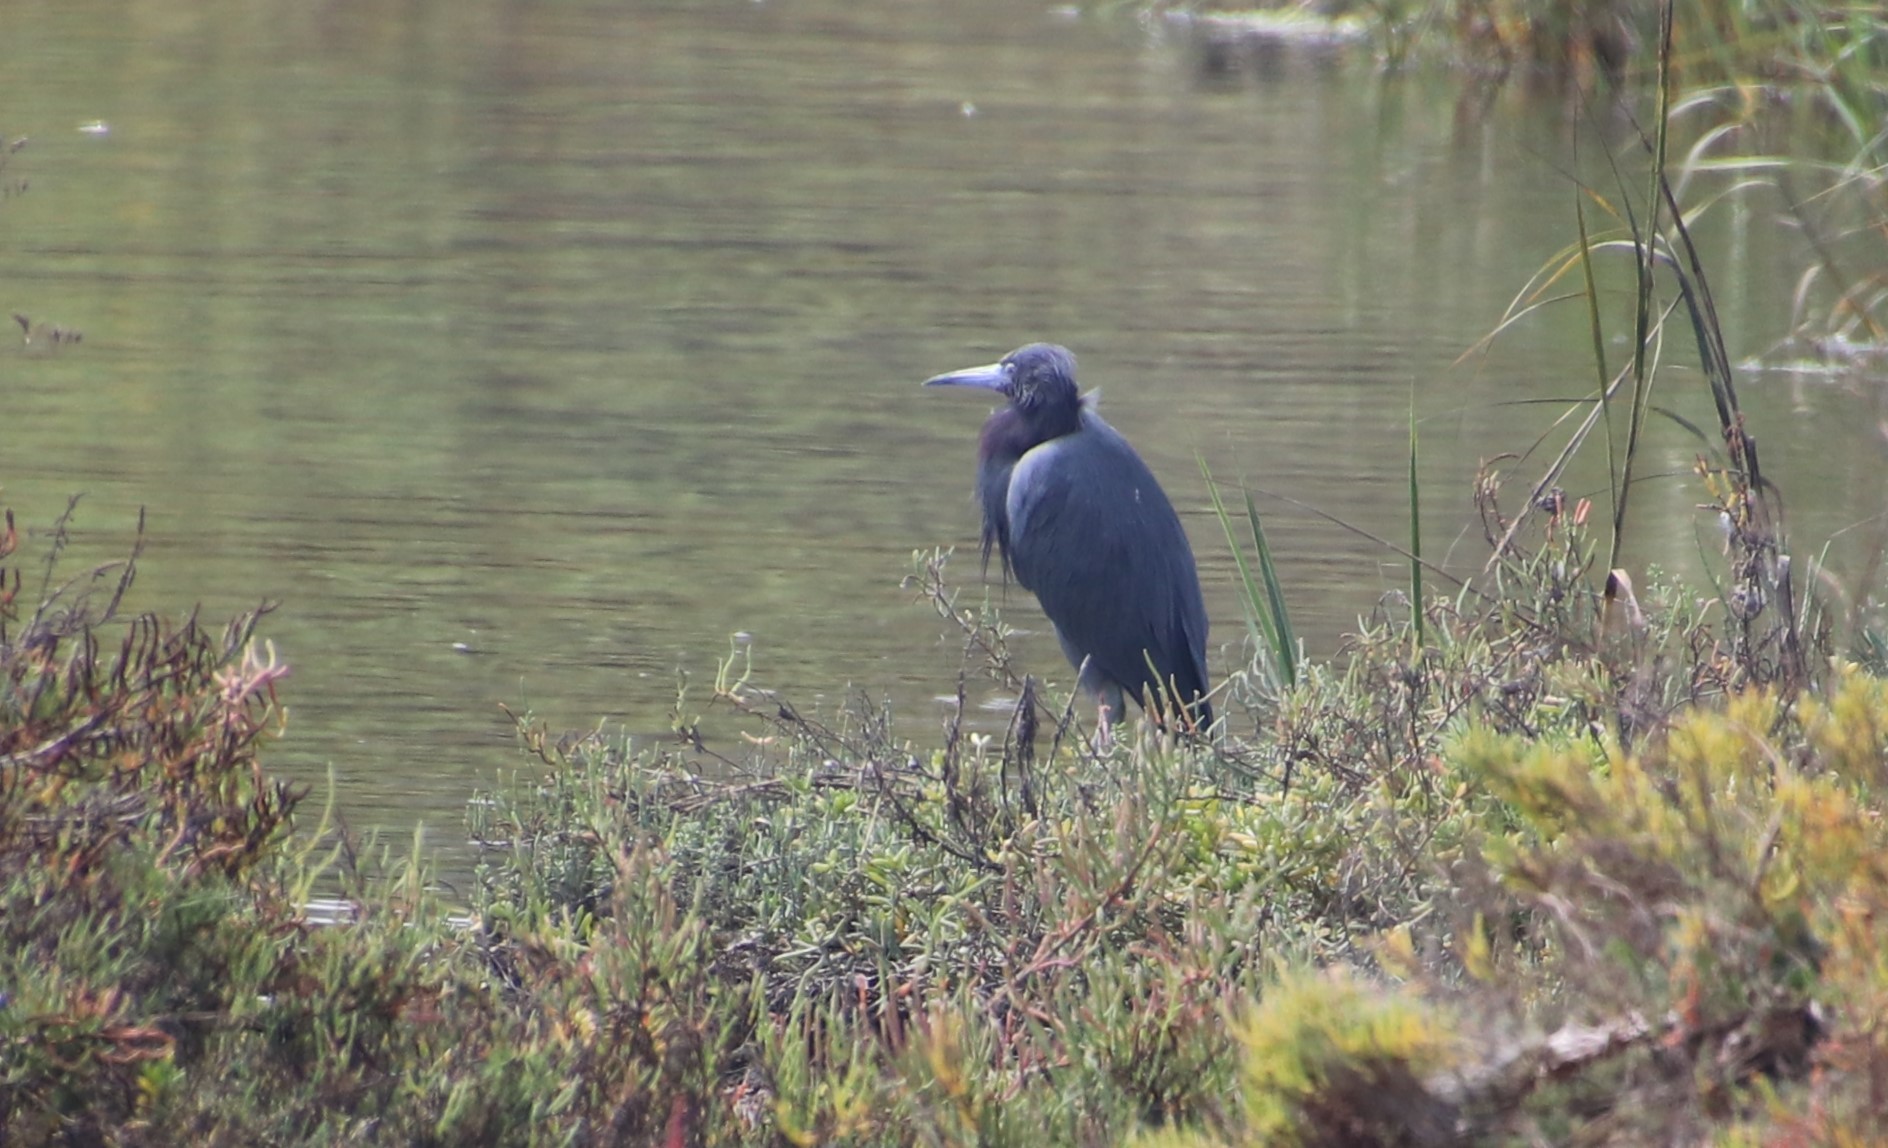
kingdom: Animalia
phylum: Chordata
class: Aves
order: Pelecaniformes
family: Ardeidae
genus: Egretta
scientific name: Egretta caerulea
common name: Little blue heron
